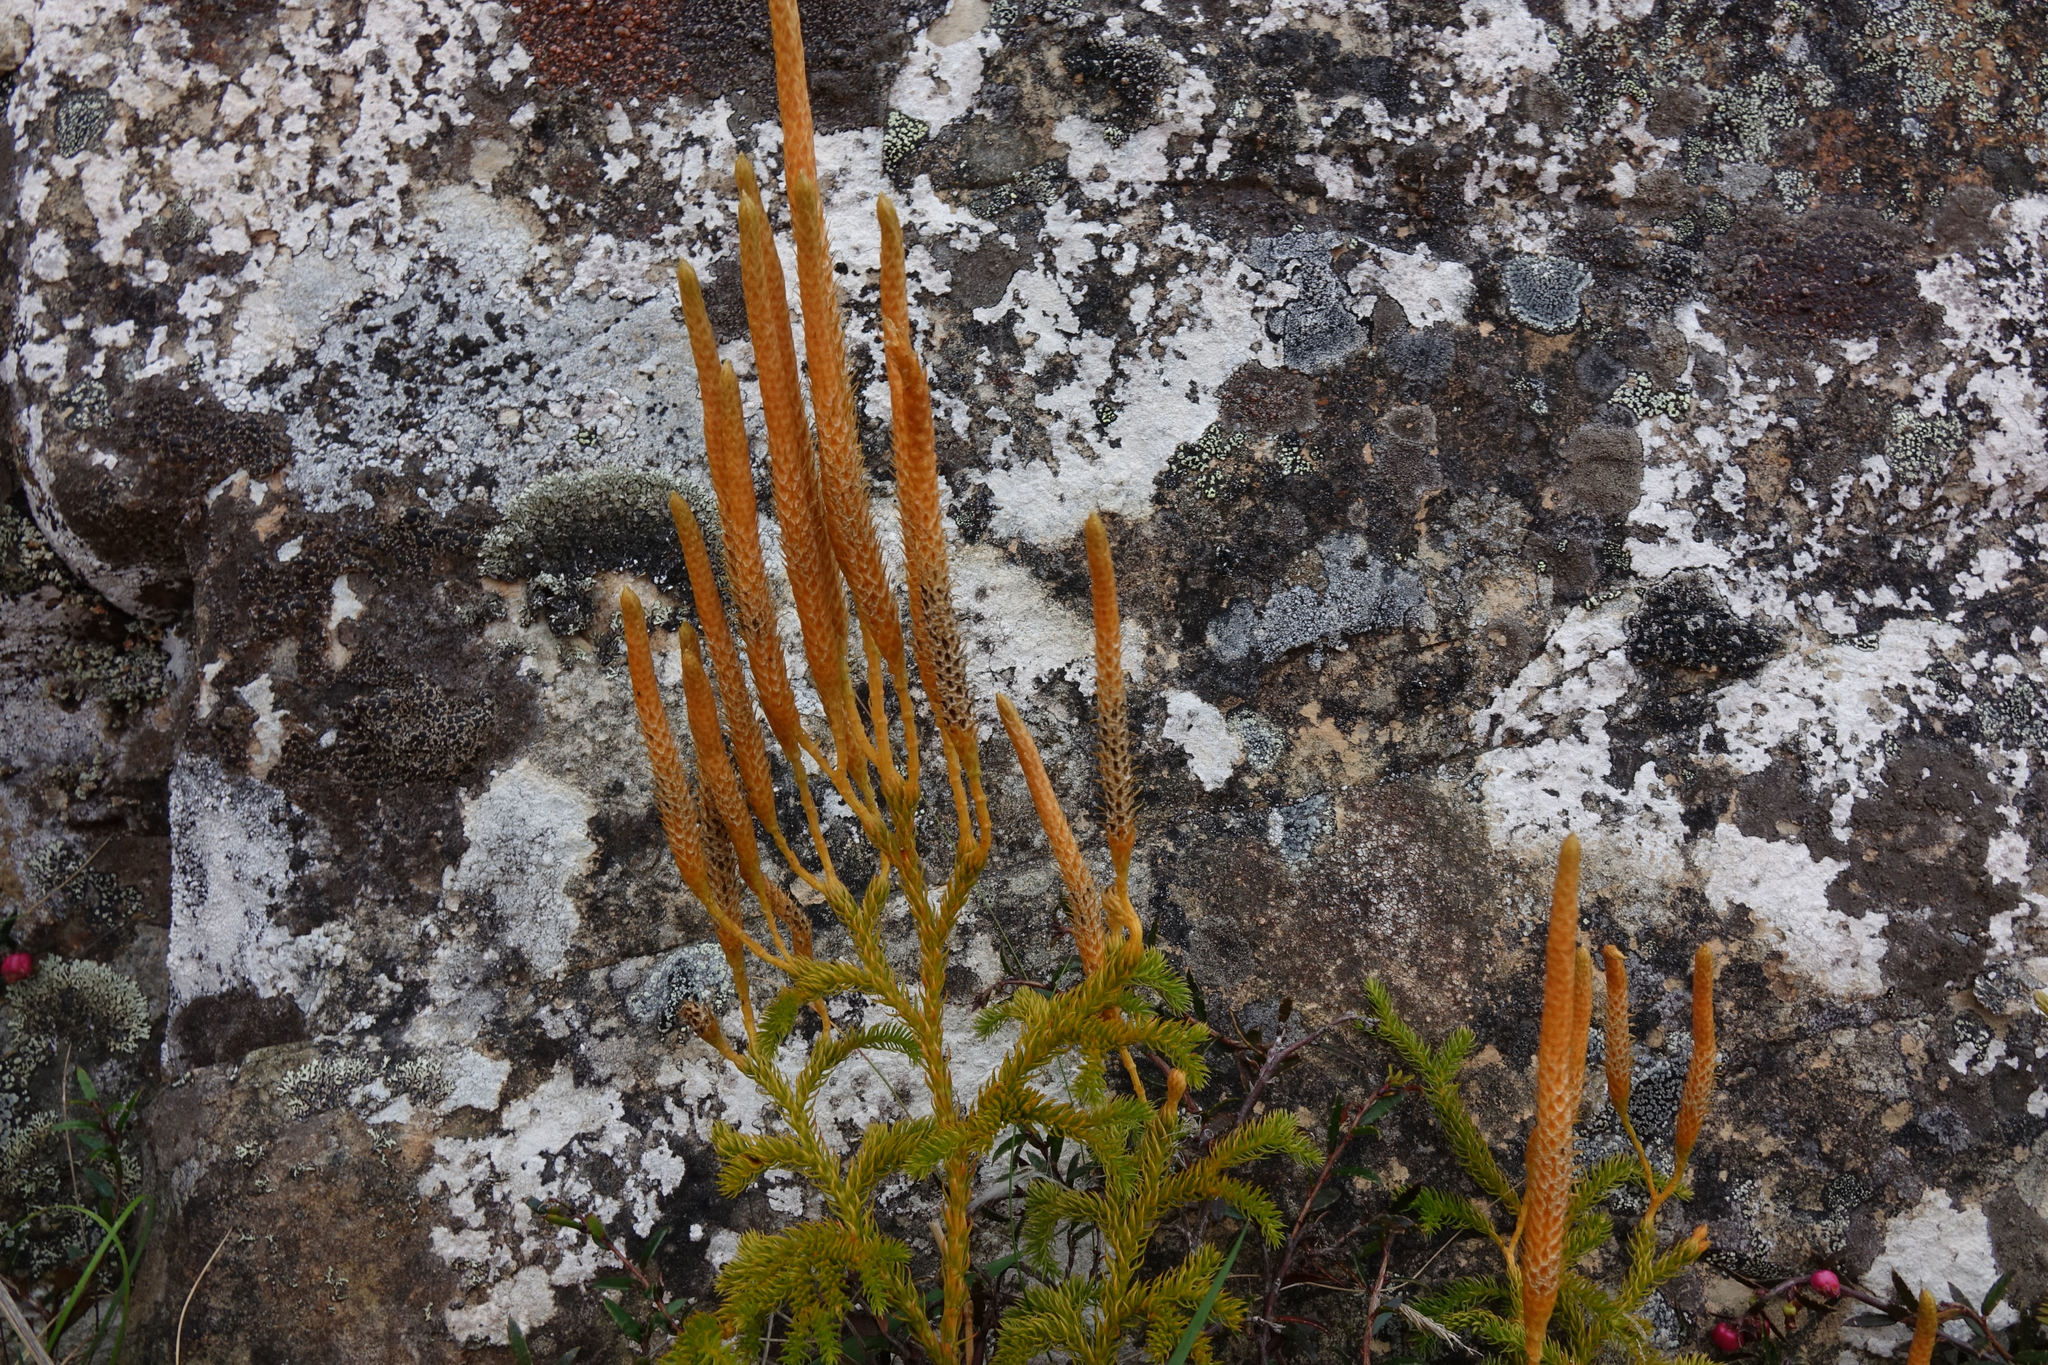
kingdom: Plantae
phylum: Tracheophyta
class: Lycopodiopsida
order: Lycopodiales
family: Lycopodiaceae
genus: Austrolycopodium
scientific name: Austrolycopodium fastigiatum
